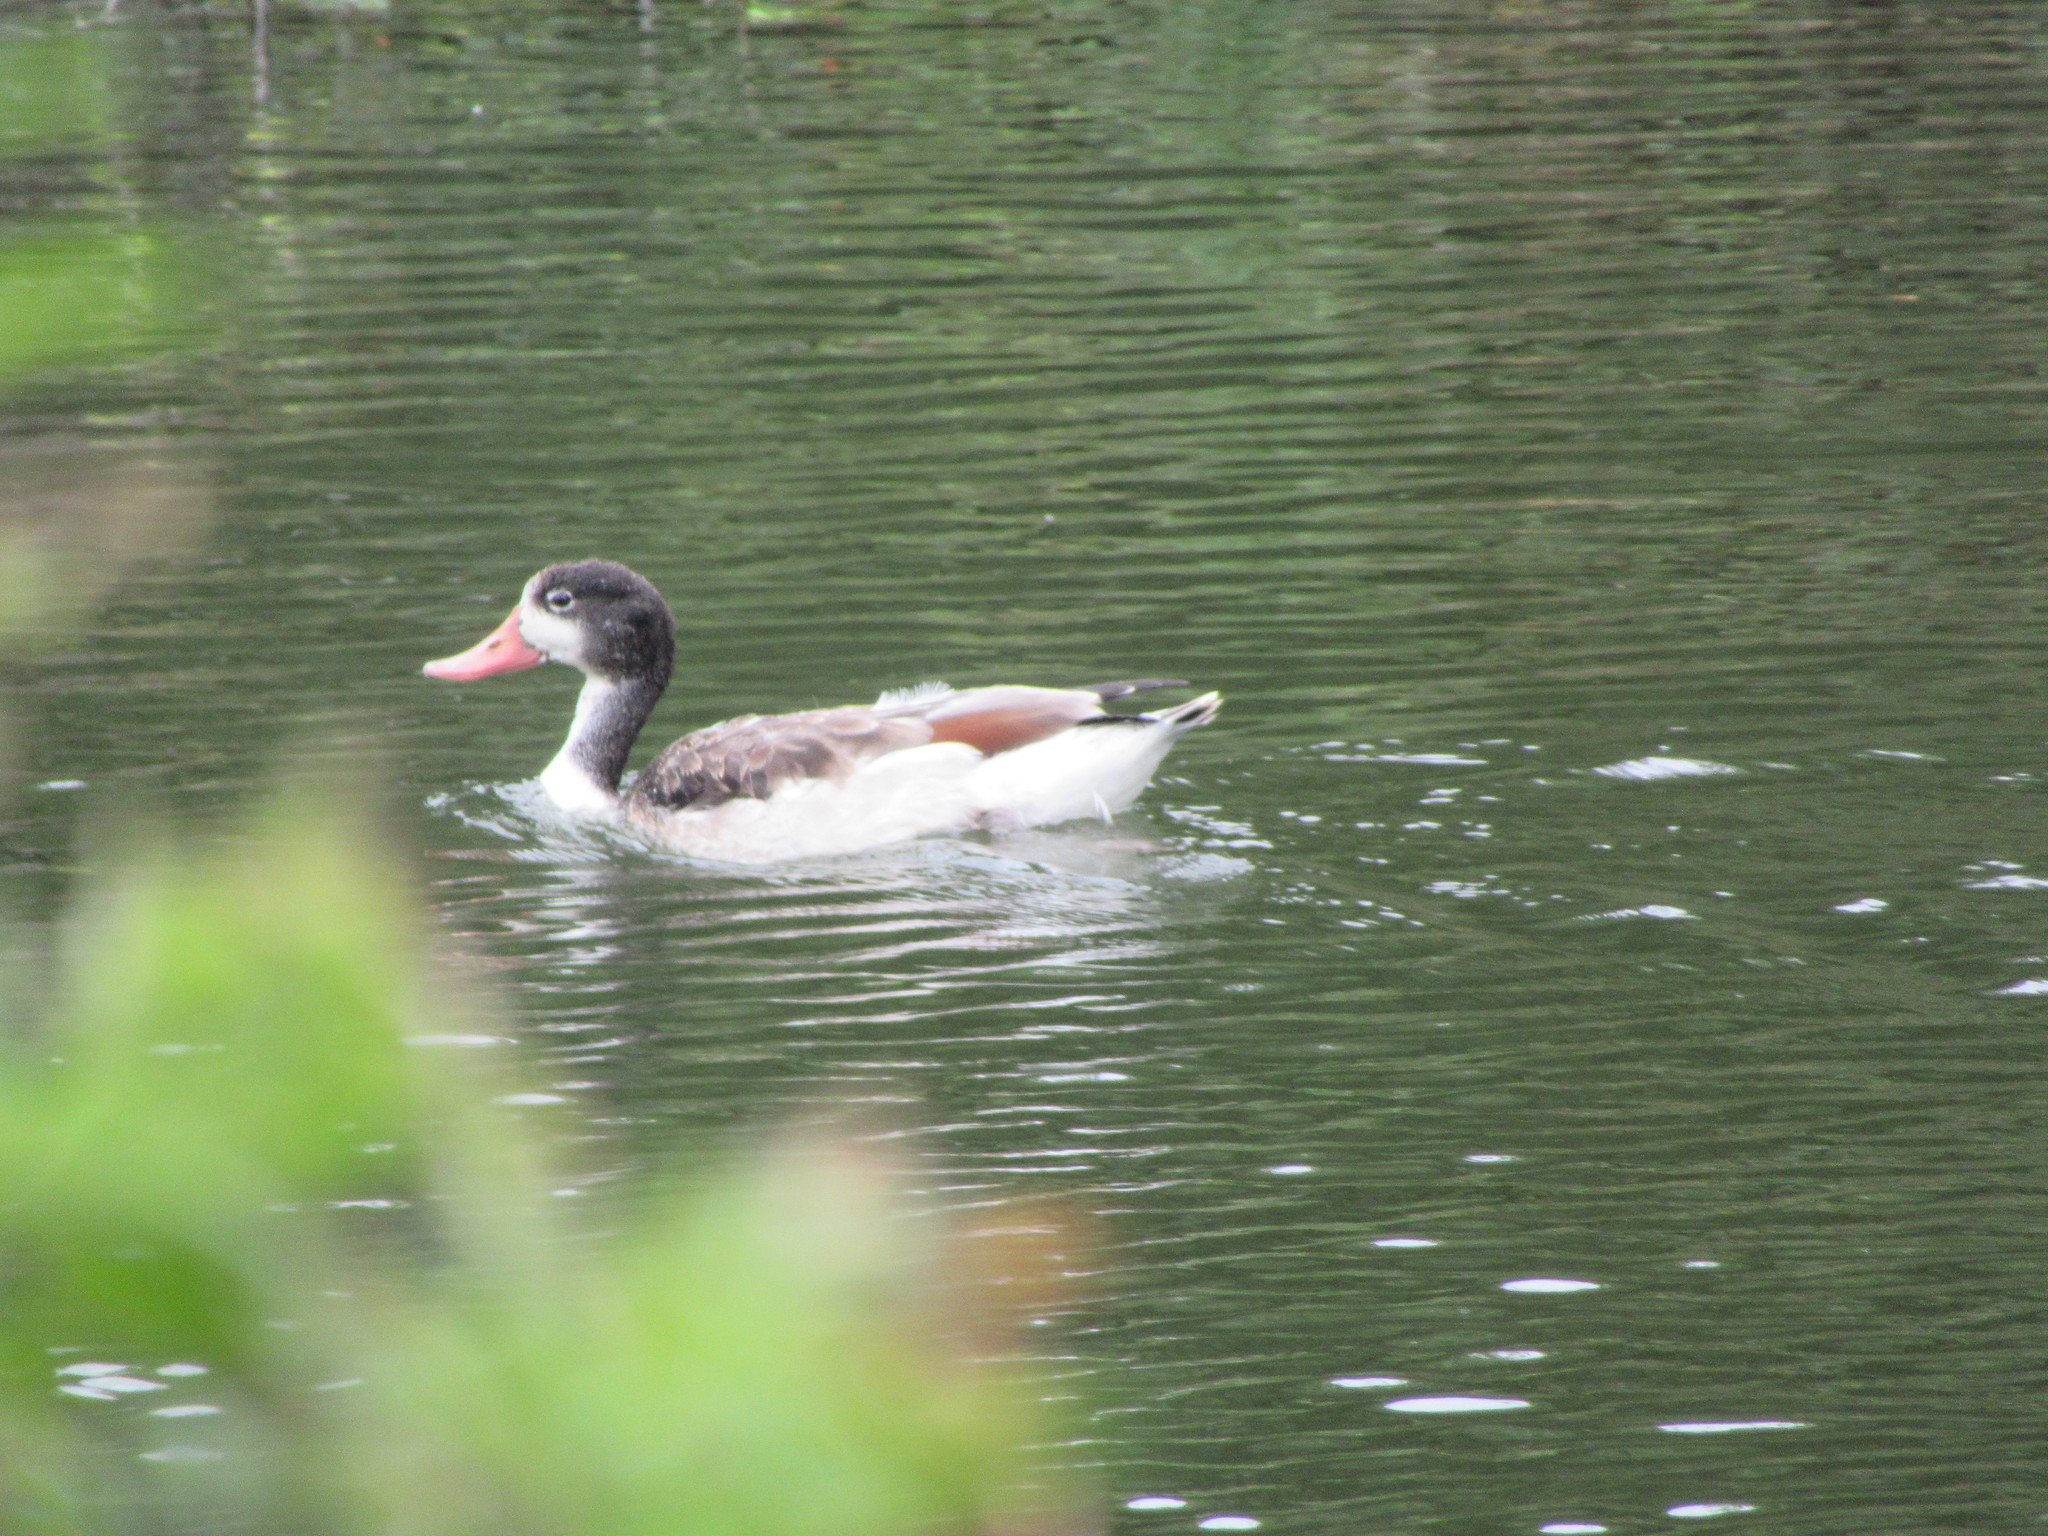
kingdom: Animalia
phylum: Chordata
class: Aves
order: Anseriformes
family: Anatidae
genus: Tadorna
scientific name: Tadorna tadorna
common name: Common shelduck
